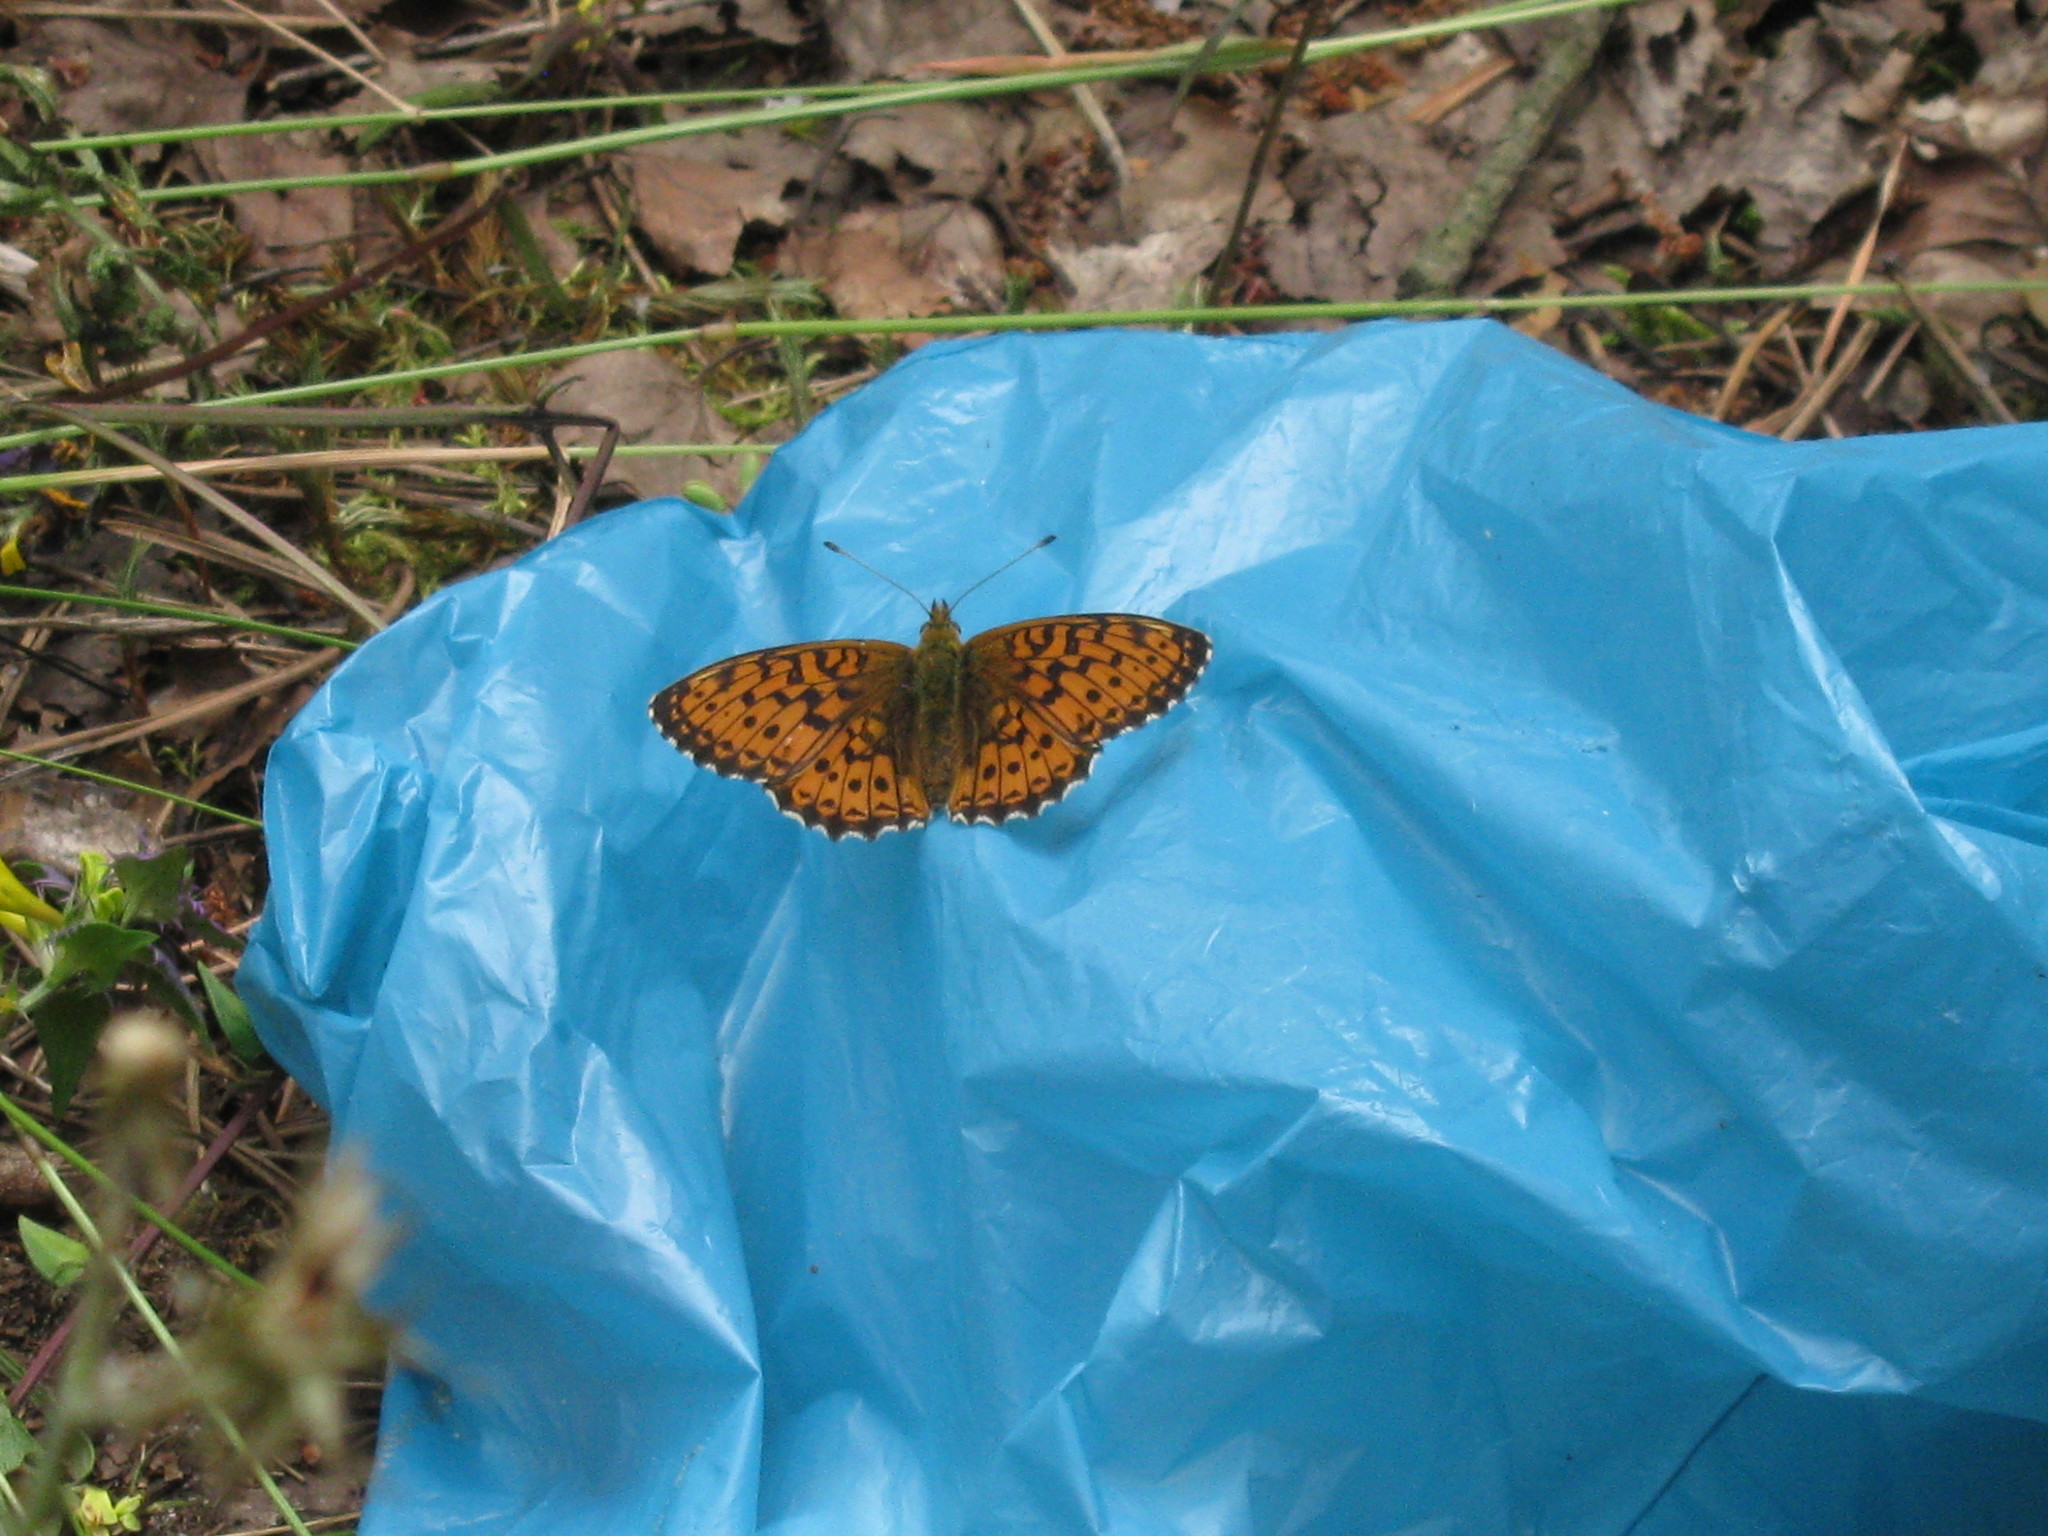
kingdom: Animalia
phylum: Arthropoda
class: Insecta
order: Lepidoptera
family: Nymphalidae
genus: Brenthis
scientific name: Brenthis ino
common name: Lesser marbled fritillary
